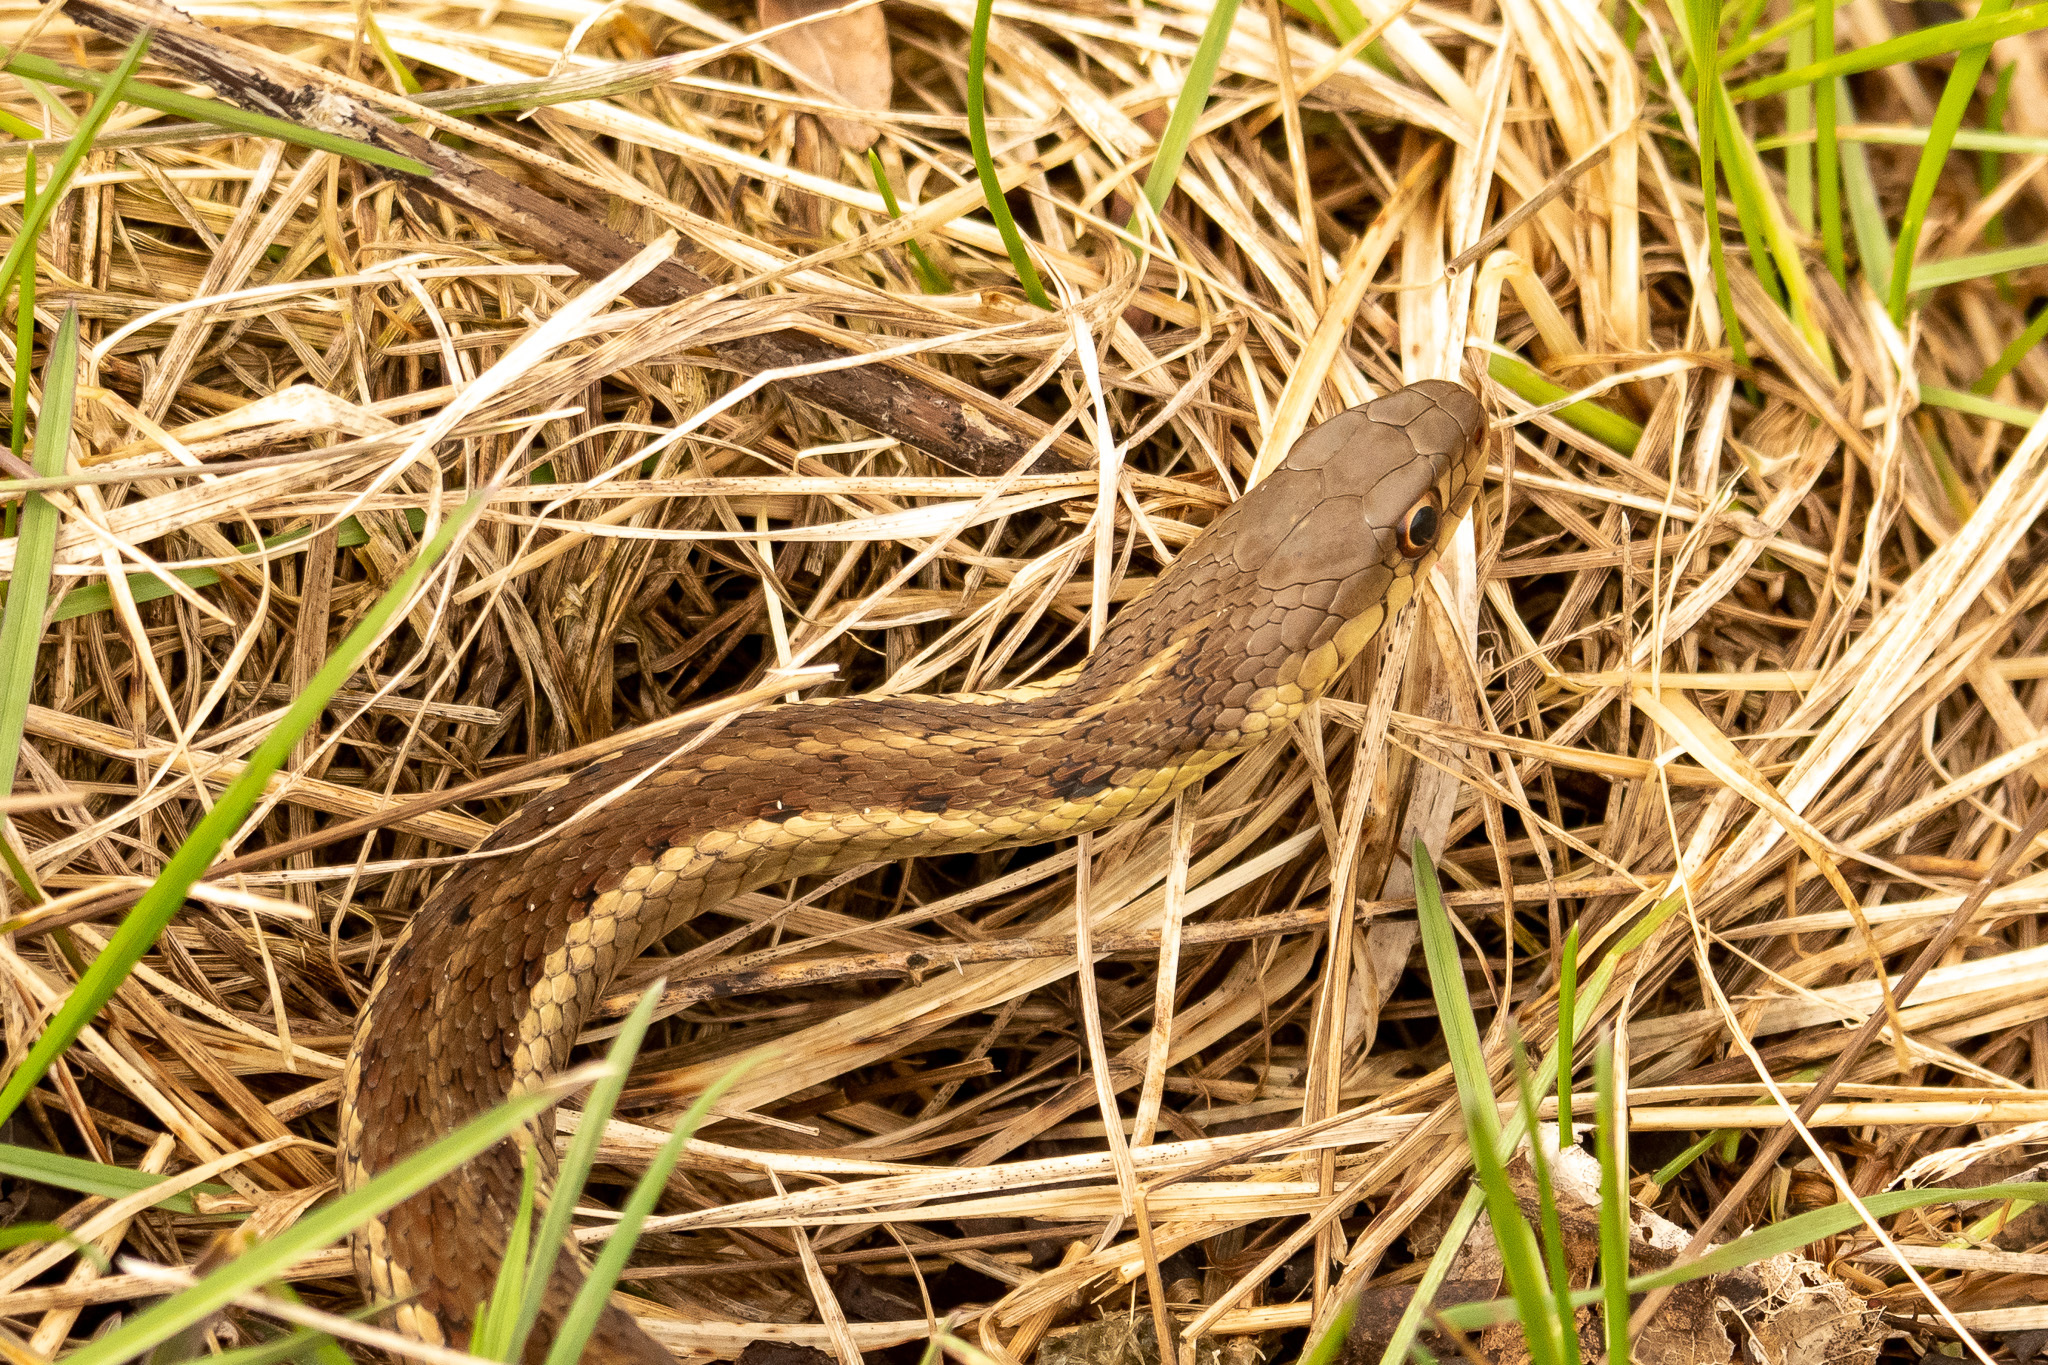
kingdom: Animalia
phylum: Chordata
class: Squamata
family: Colubridae
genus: Thamnophis
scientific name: Thamnophis sirtalis
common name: Common garter snake
